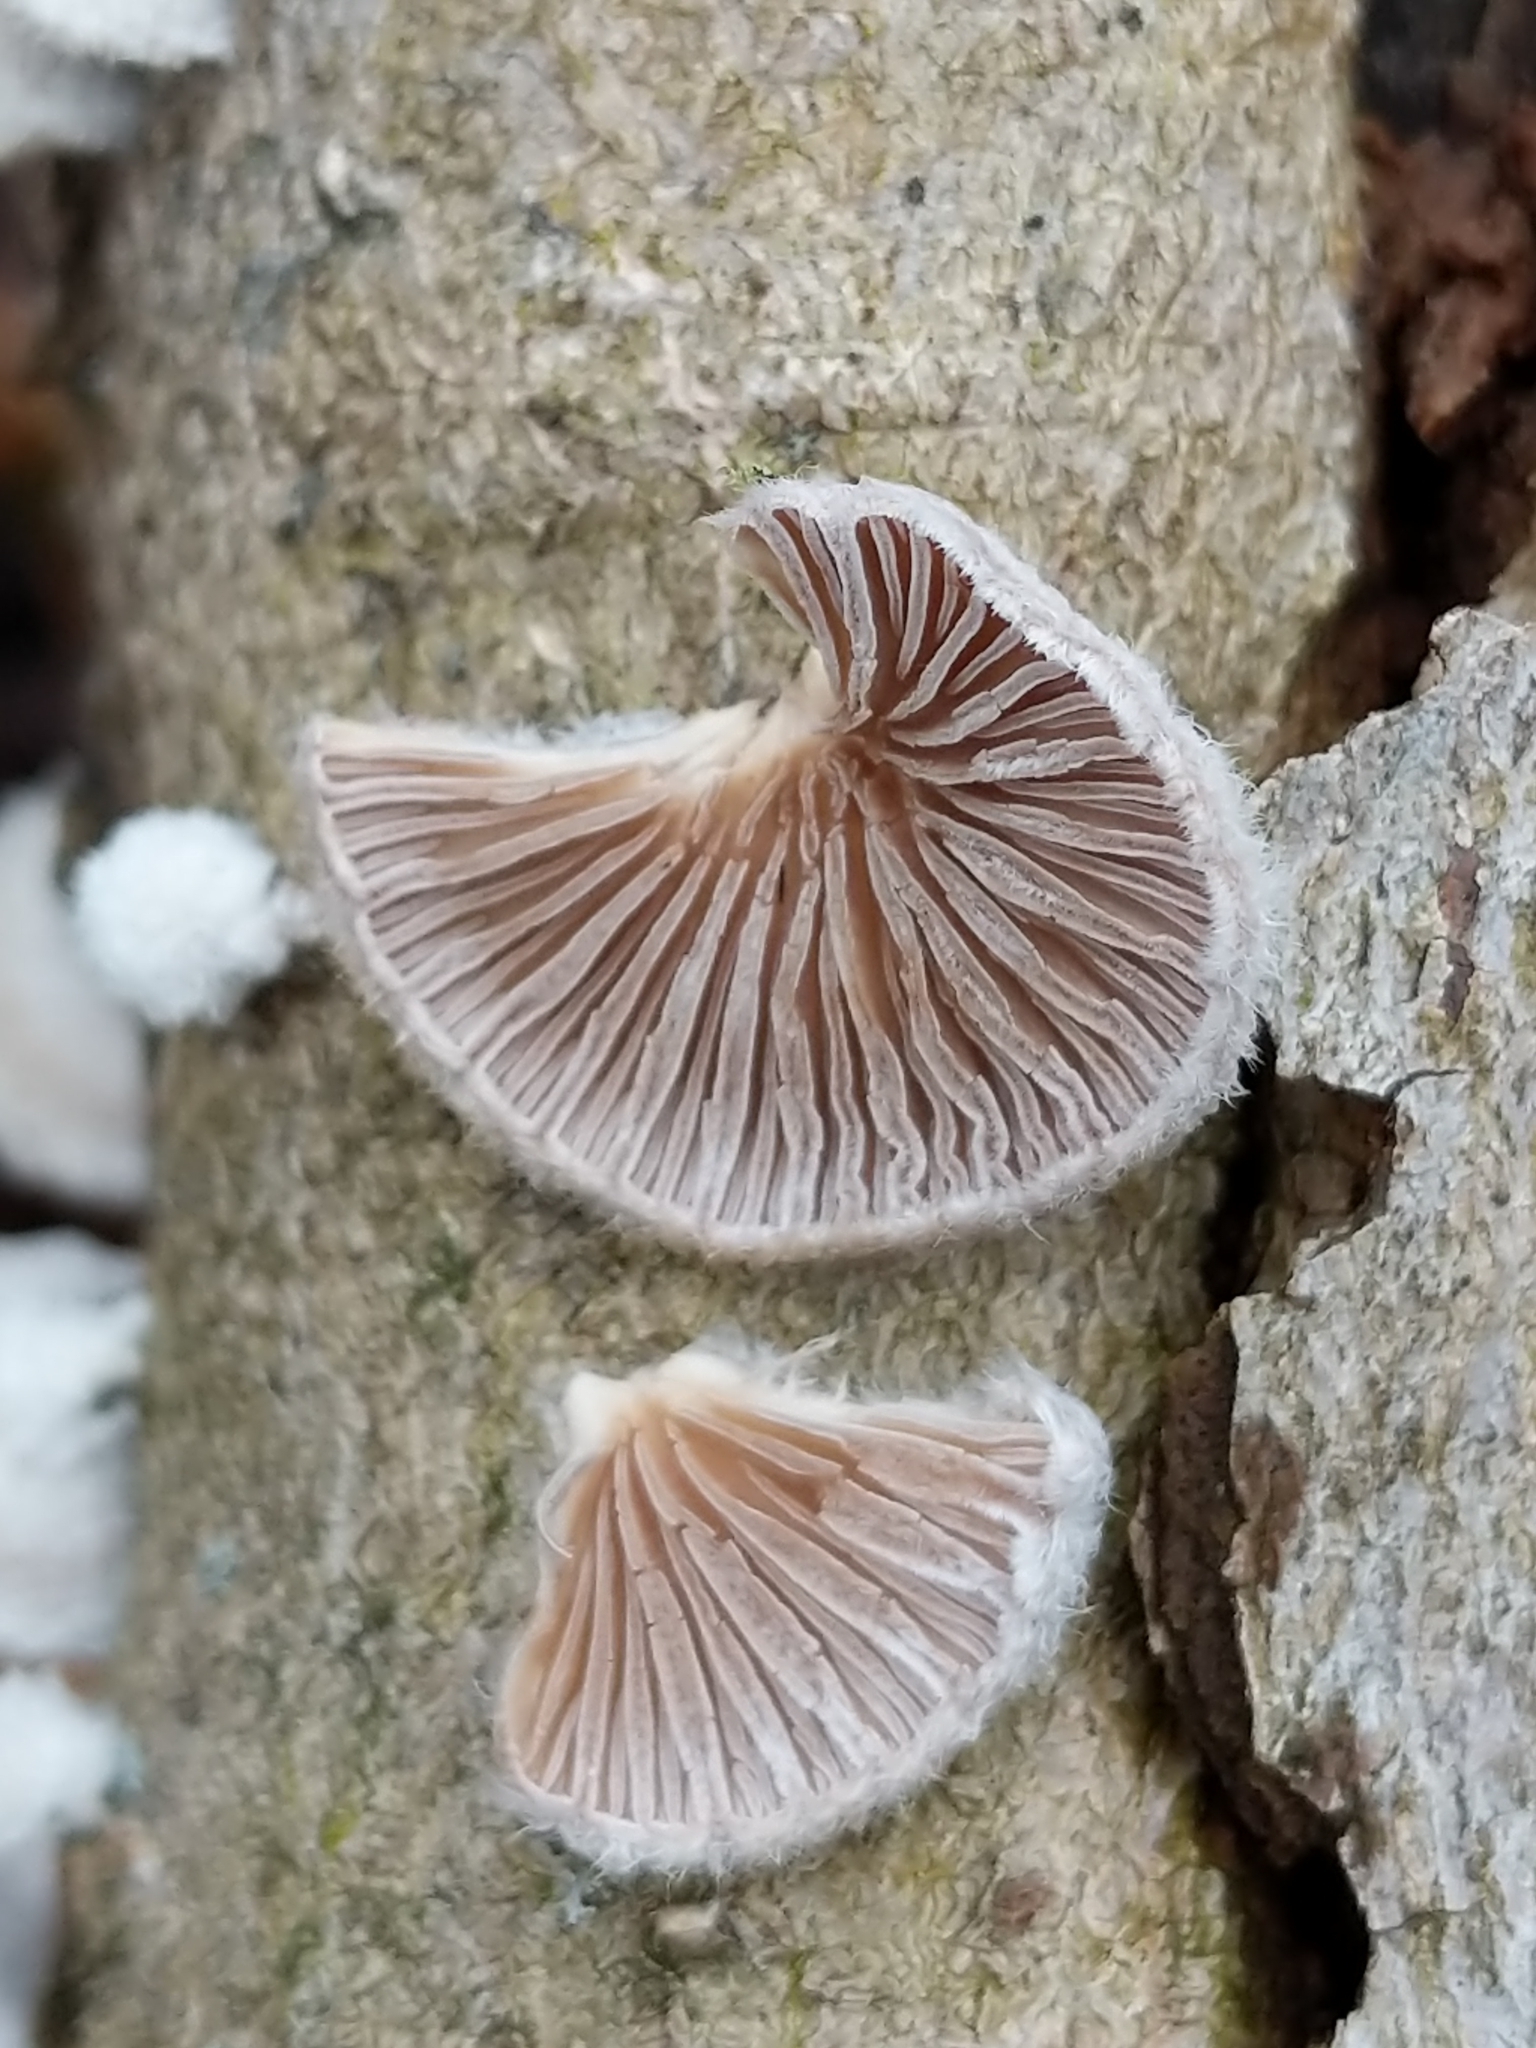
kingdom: Fungi
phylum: Basidiomycota
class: Agaricomycetes
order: Agaricales
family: Schizophyllaceae
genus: Schizophyllum
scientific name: Schizophyllum commune
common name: Common porecrust
